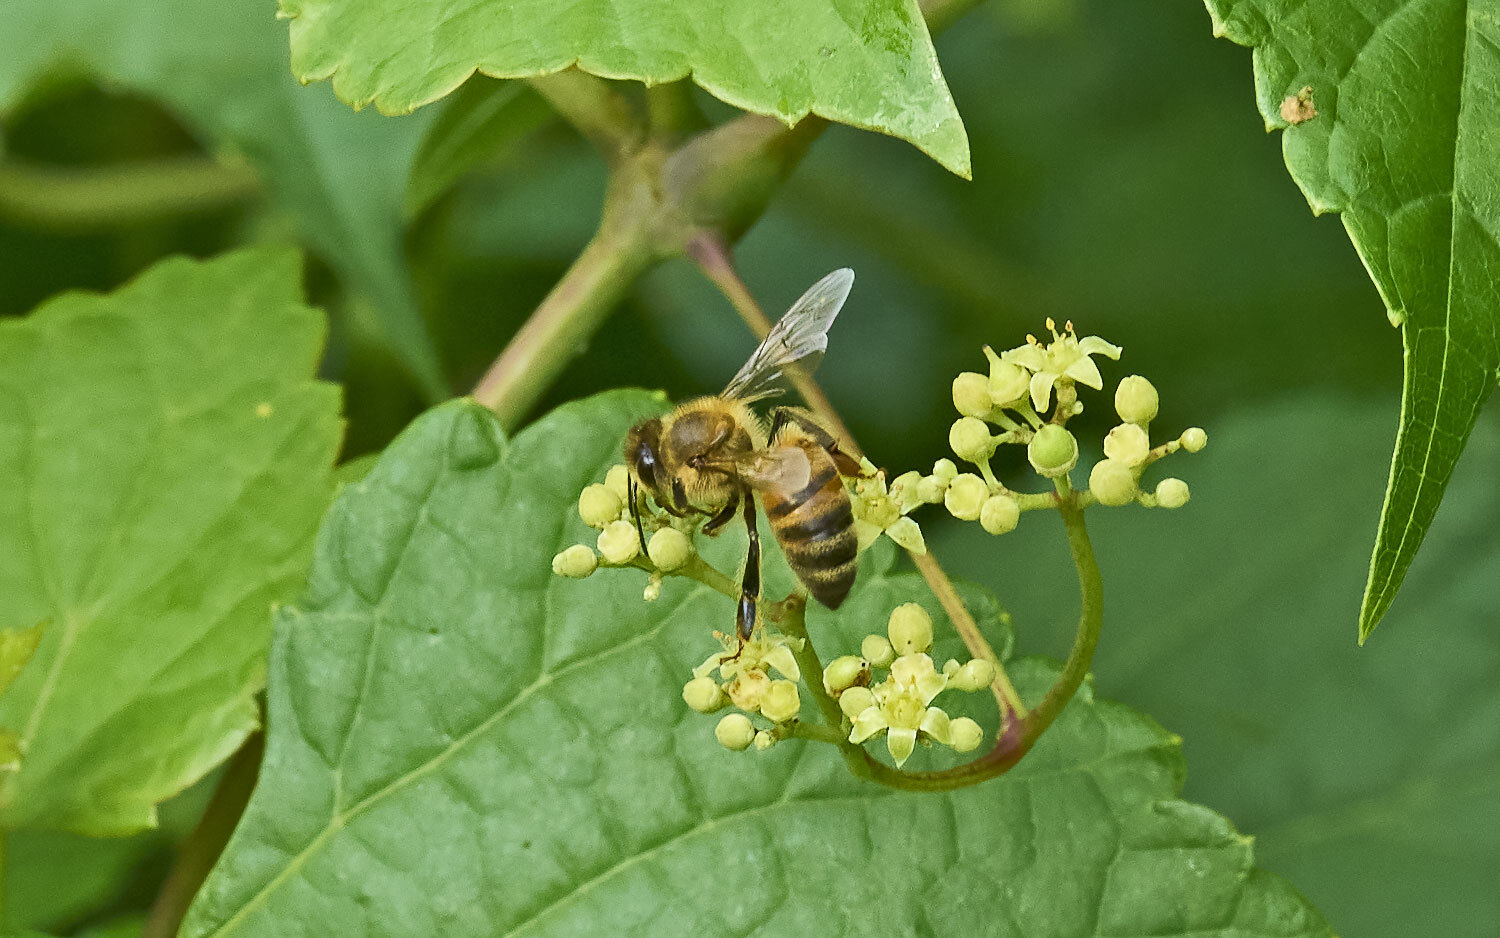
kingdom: Animalia
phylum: Arthropoda
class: Insecta
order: Hymenoptera
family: Apidae
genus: Apis
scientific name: Apis mellifera
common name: Honey bee
